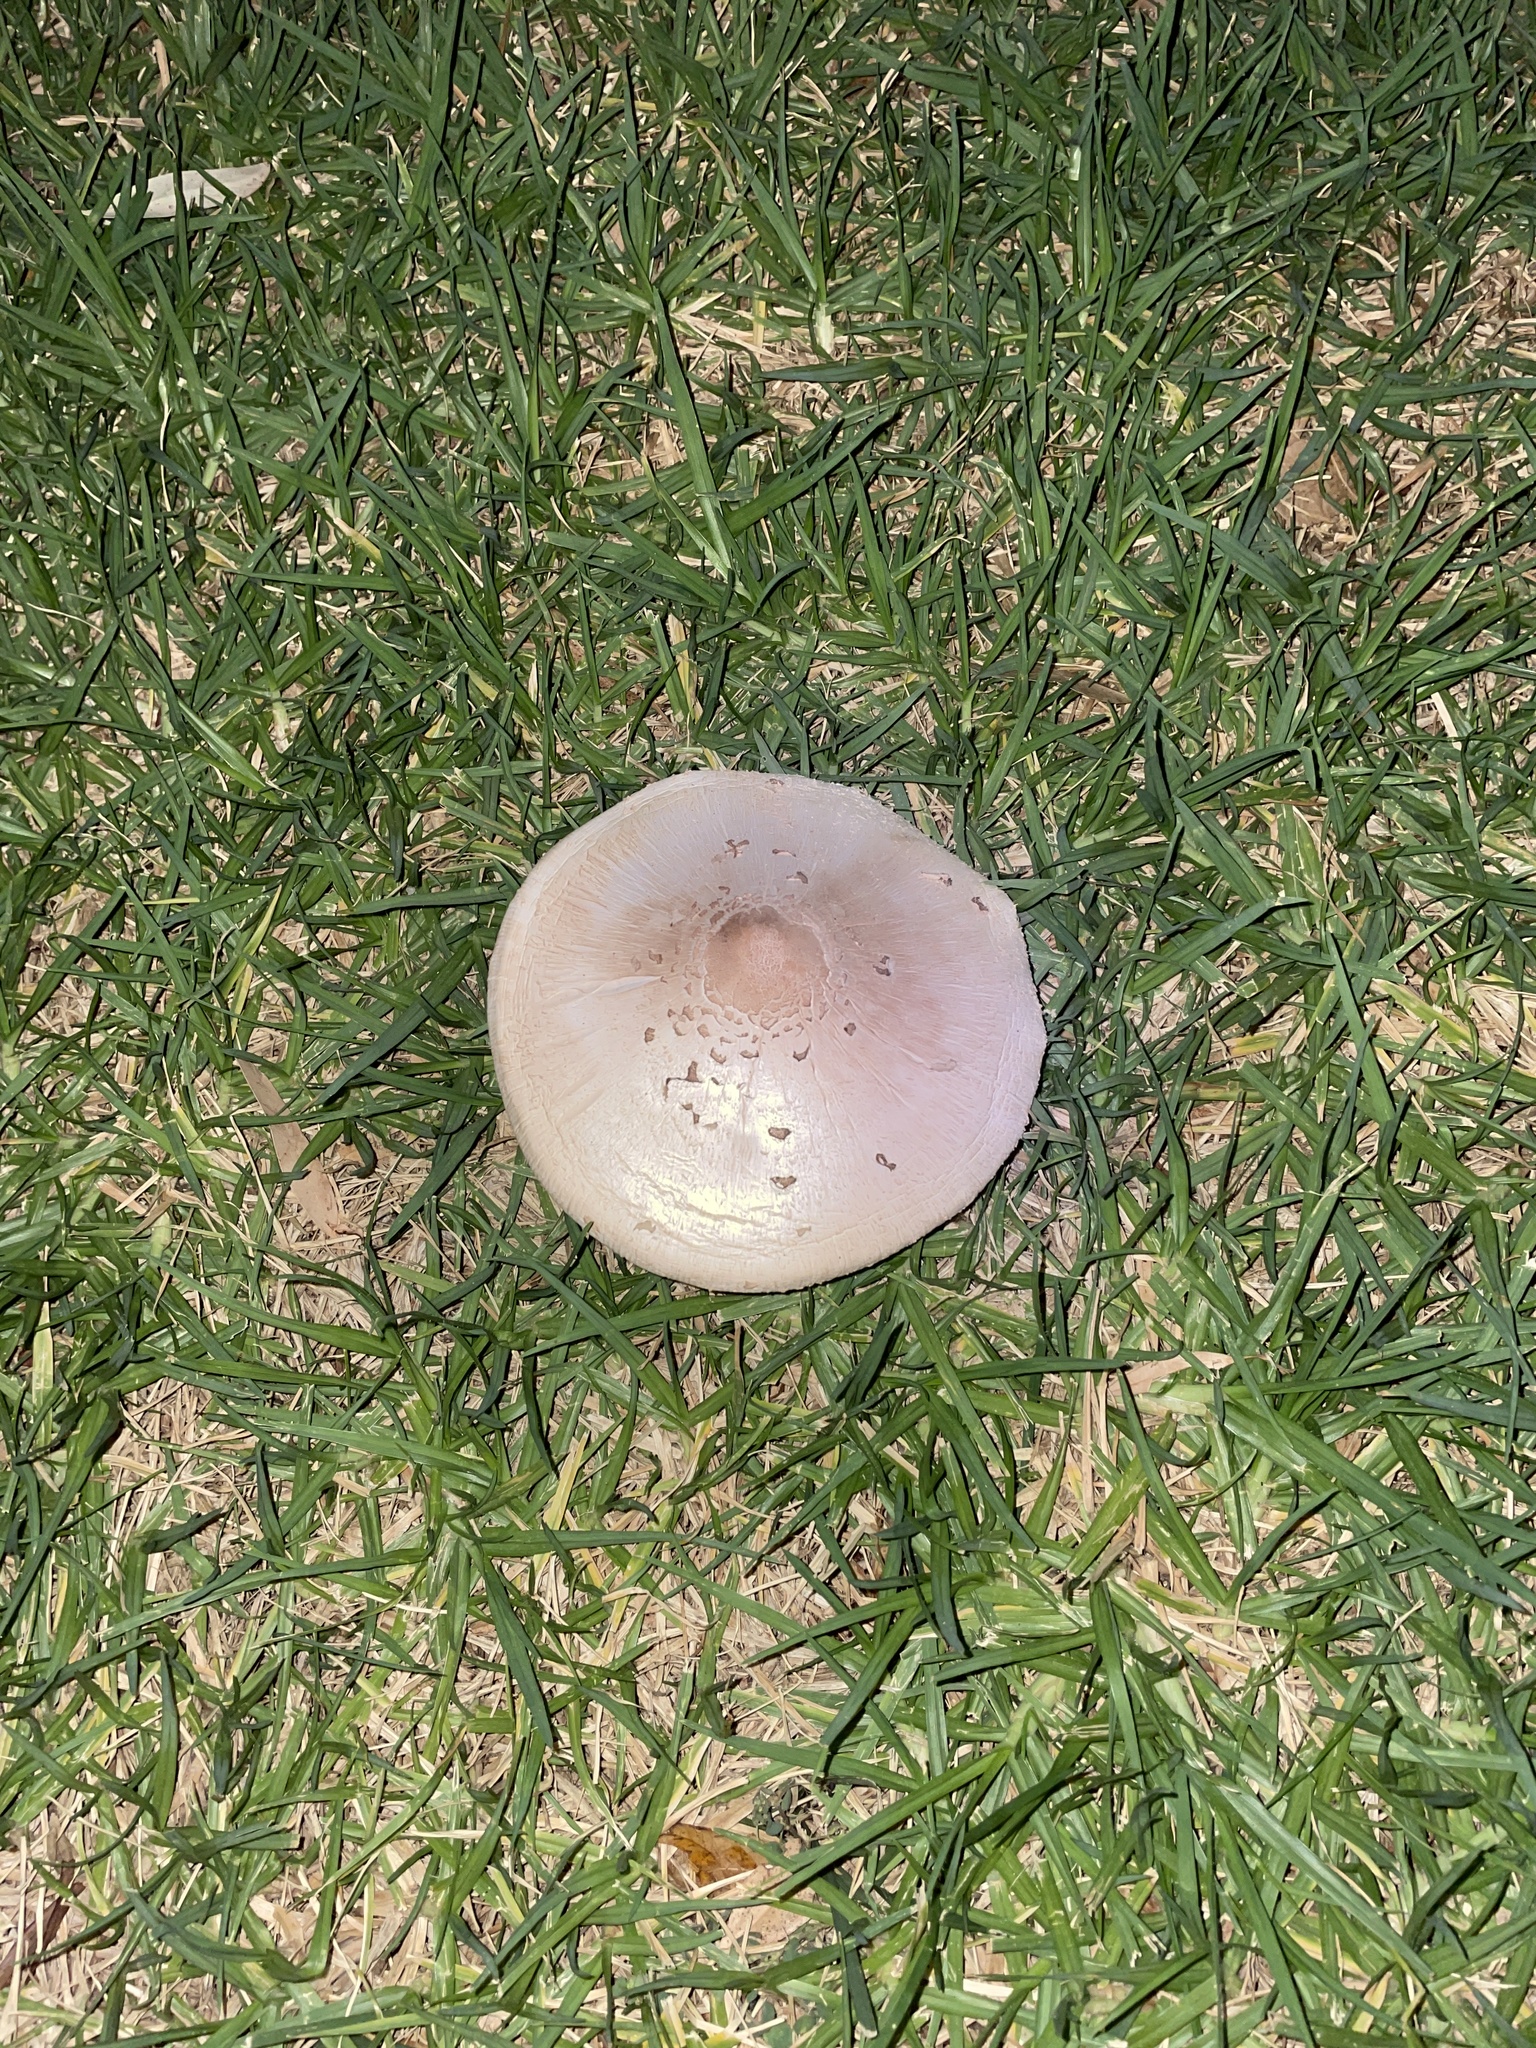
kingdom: Fungi
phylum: Basidiomycota
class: Agaricomycetes
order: Agaricales
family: Agaricaceae
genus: Chlorophyllum
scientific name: Chlorophyllum molybdites
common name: False parasol
